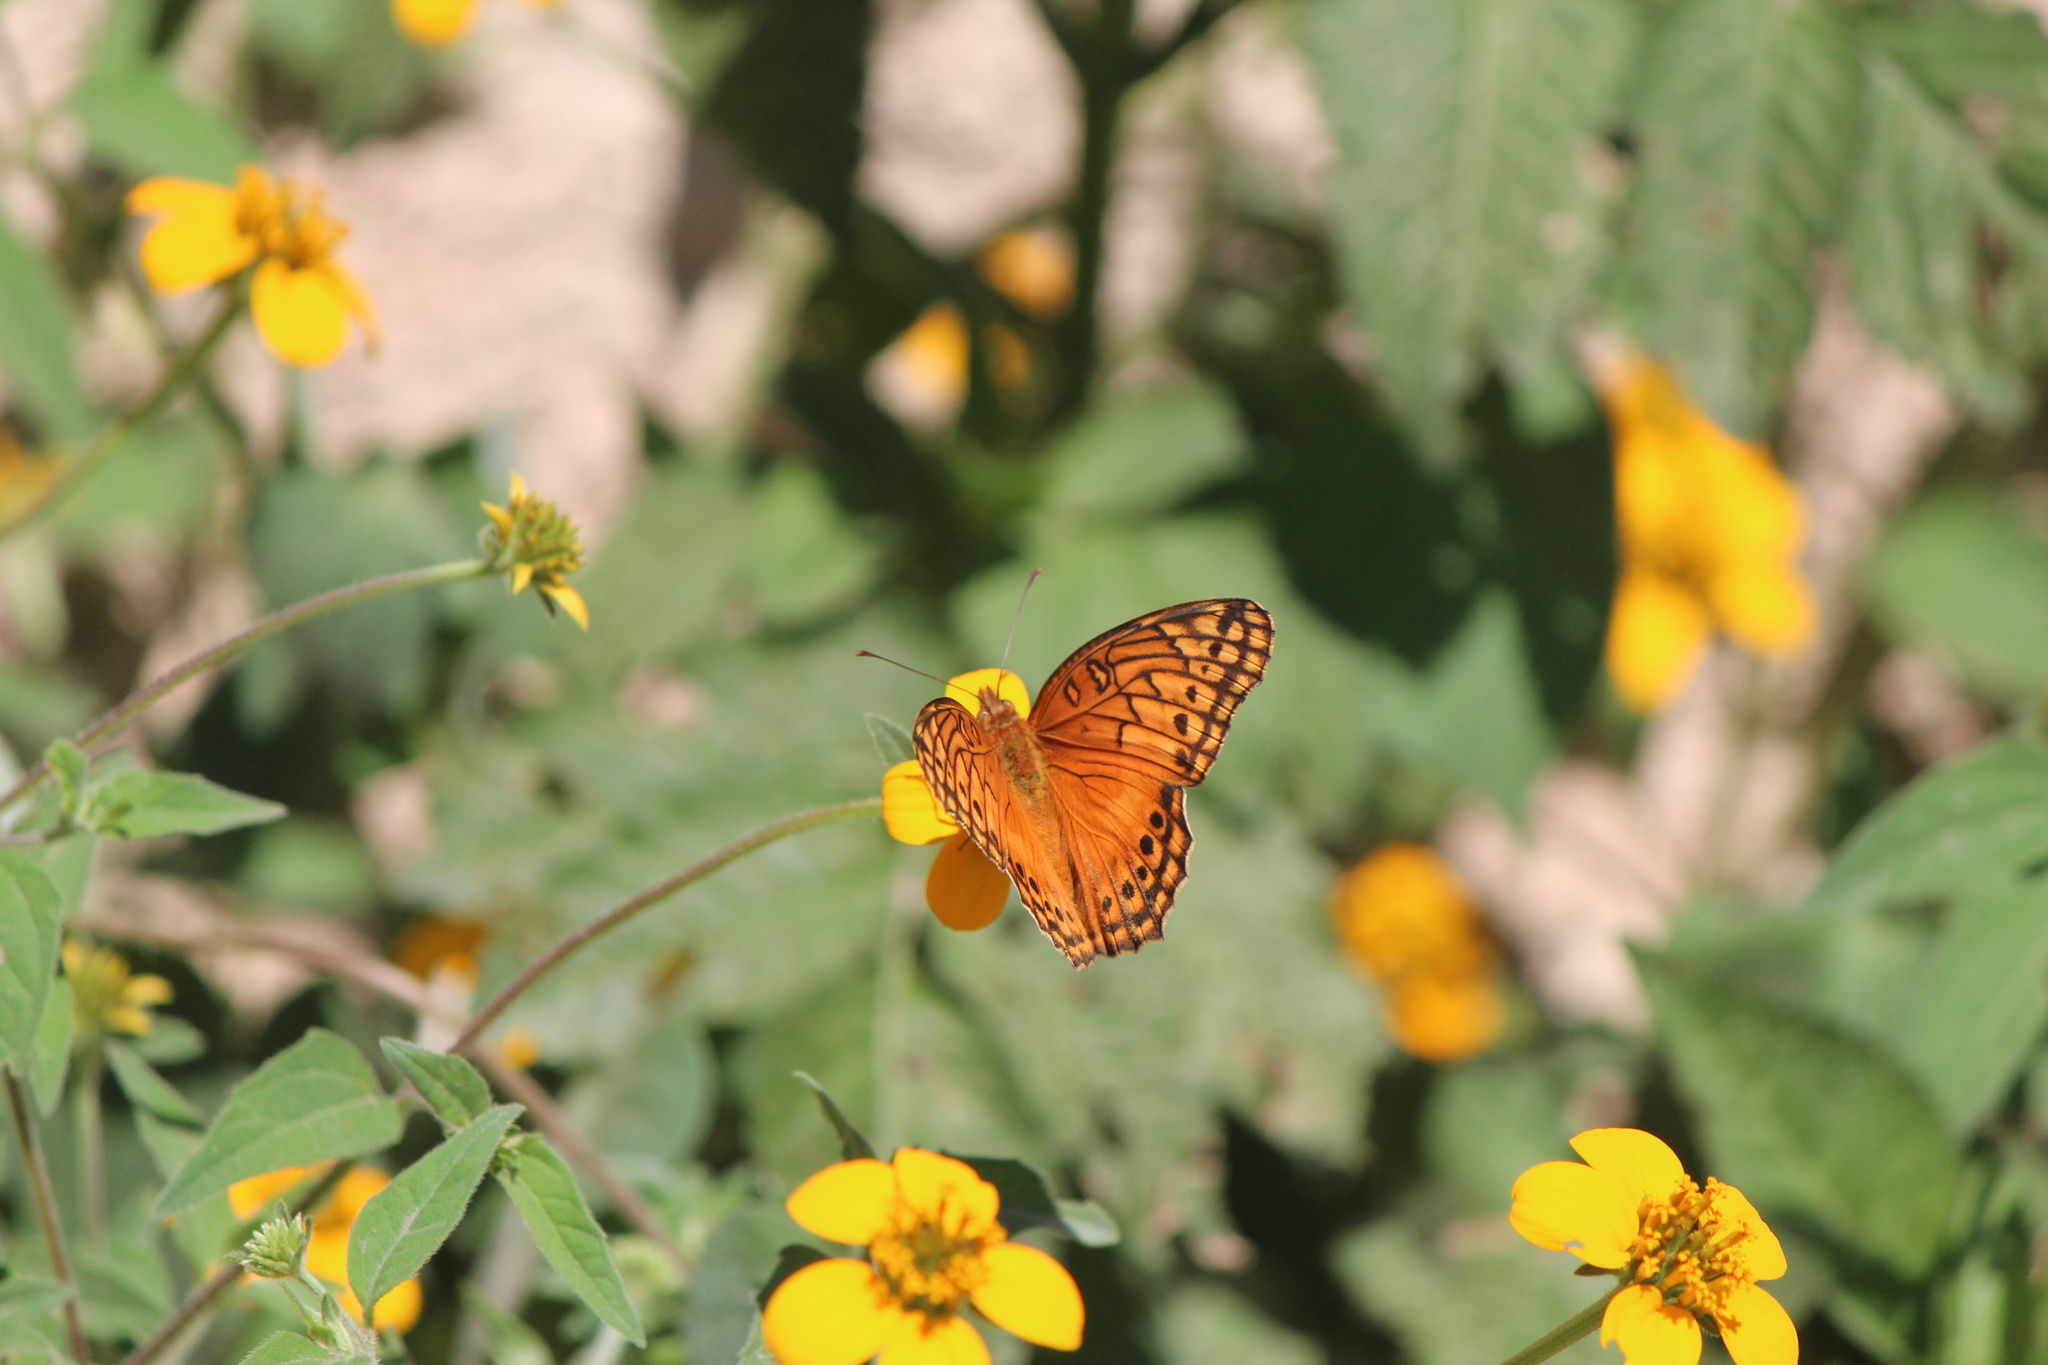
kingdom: Animalia
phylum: Arthropoda
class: Insecta
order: Lepidoptera
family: Nymphalidae
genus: Euptoieta
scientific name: Euptoieta hegesia
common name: Mexican fritillary
